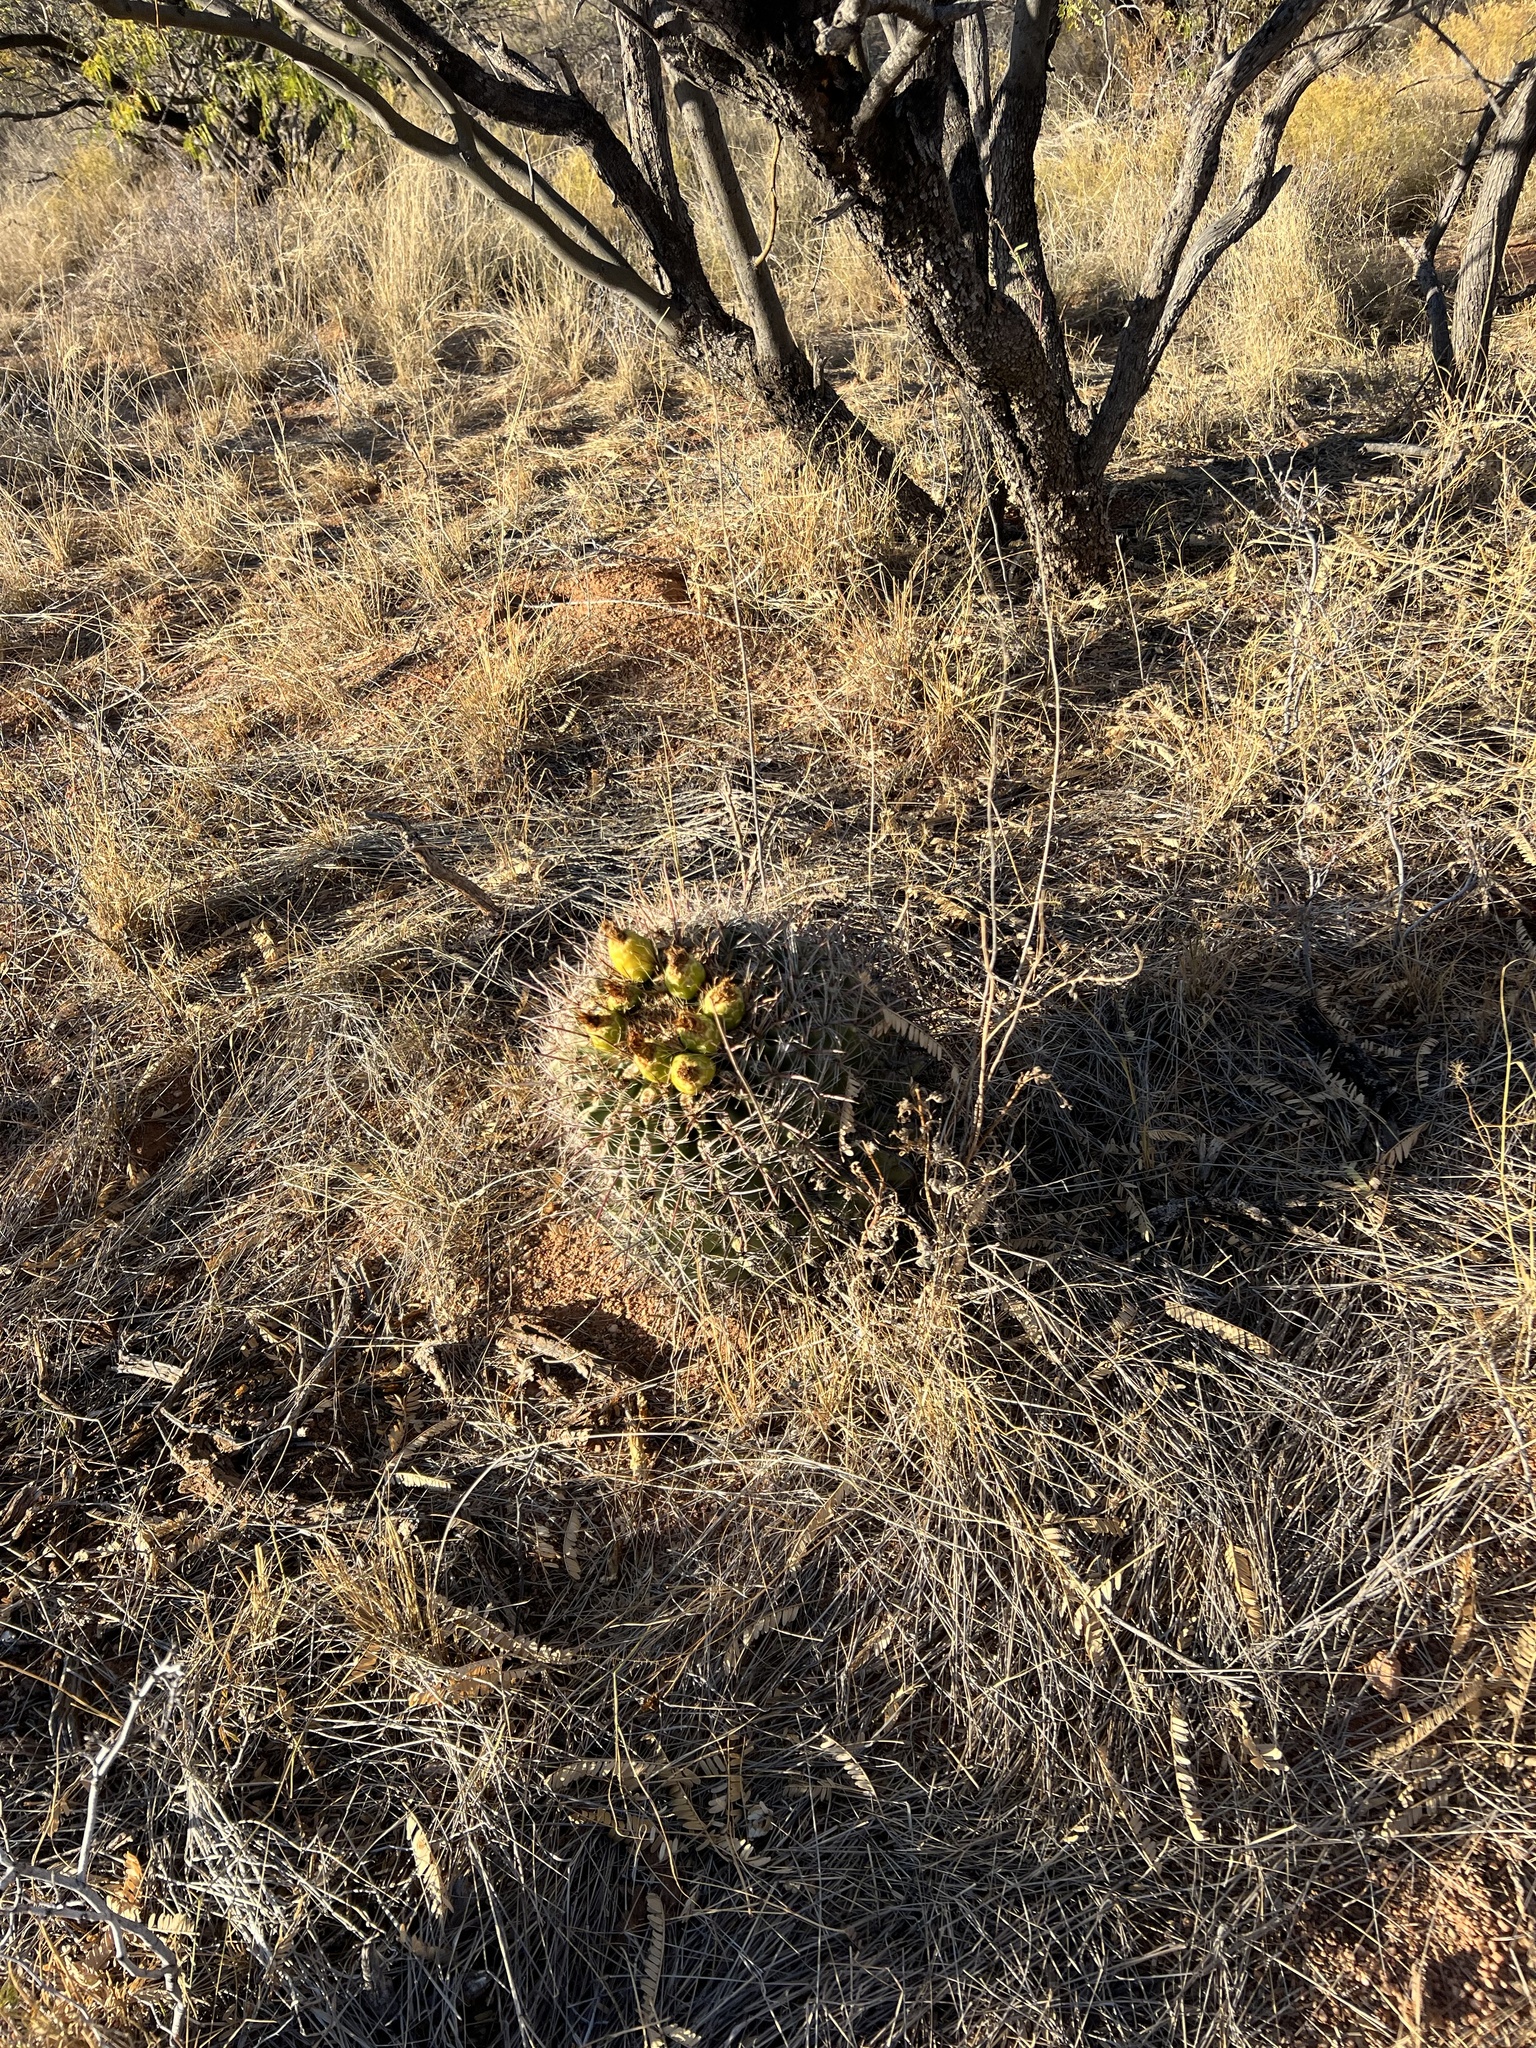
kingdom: Plantae
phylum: Tracheophyta
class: Magnoliopsida
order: Caryophyllales
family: Cactaceae
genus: Ferocactus
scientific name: Ferocactus wislizeni
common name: Candy barrel cactus
